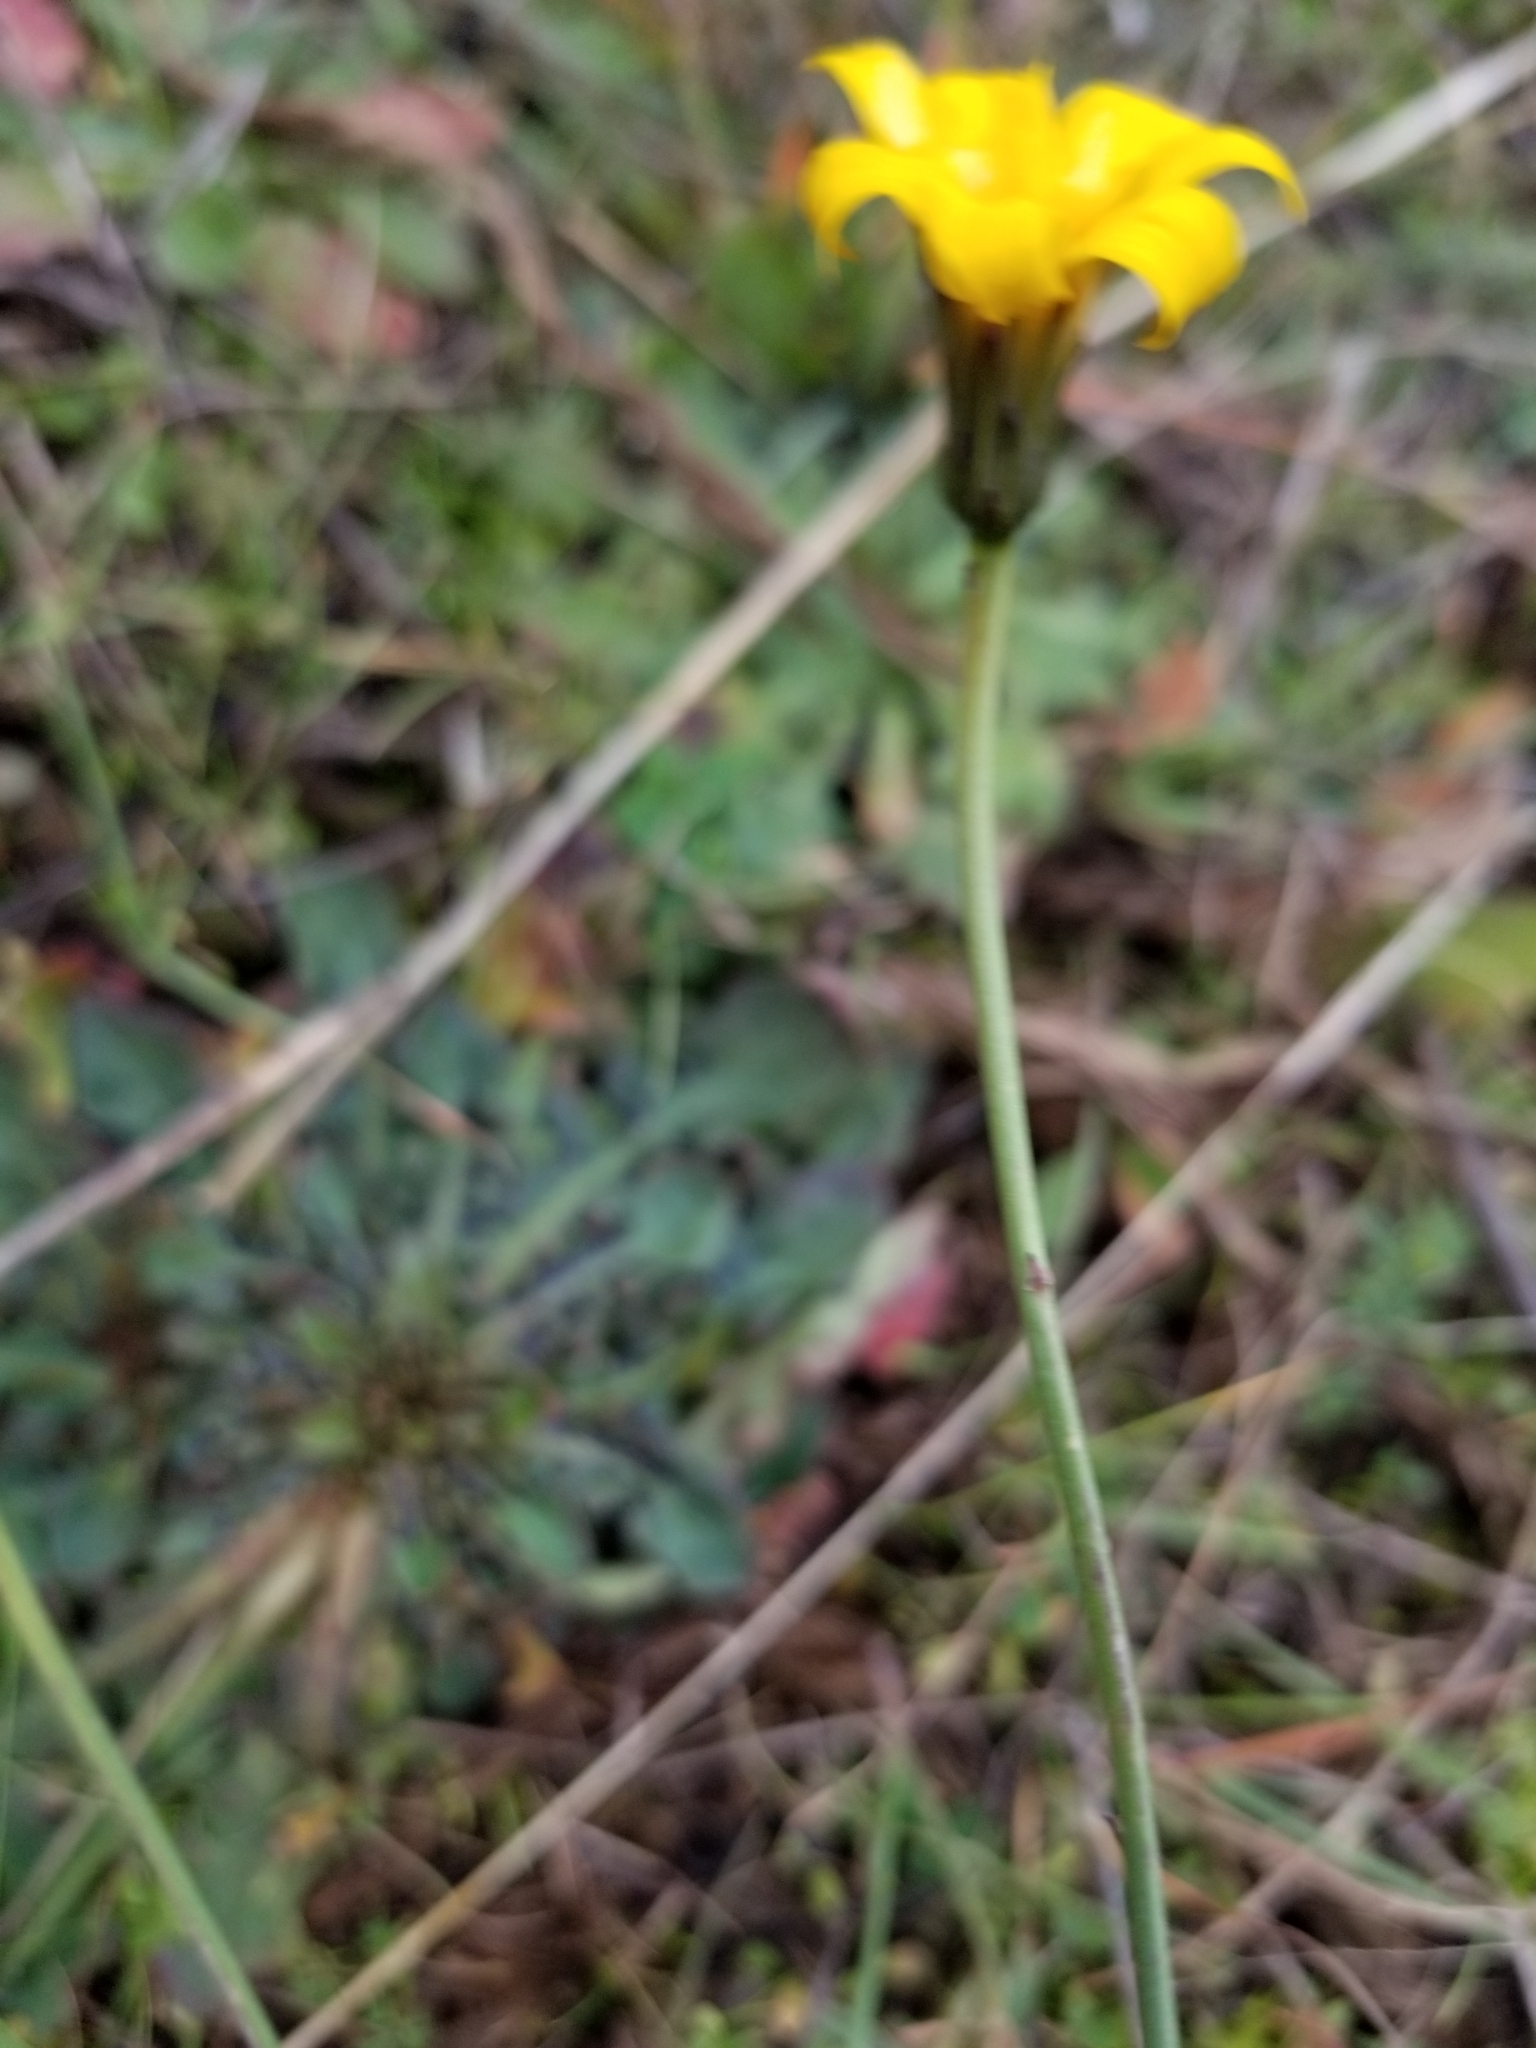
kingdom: Plantae
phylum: Tracheophyta
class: Magnoliopsida
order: Asterales
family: Asteraceae
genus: Hypochaeris
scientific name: Hypochaeris radicata
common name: Flatweed
